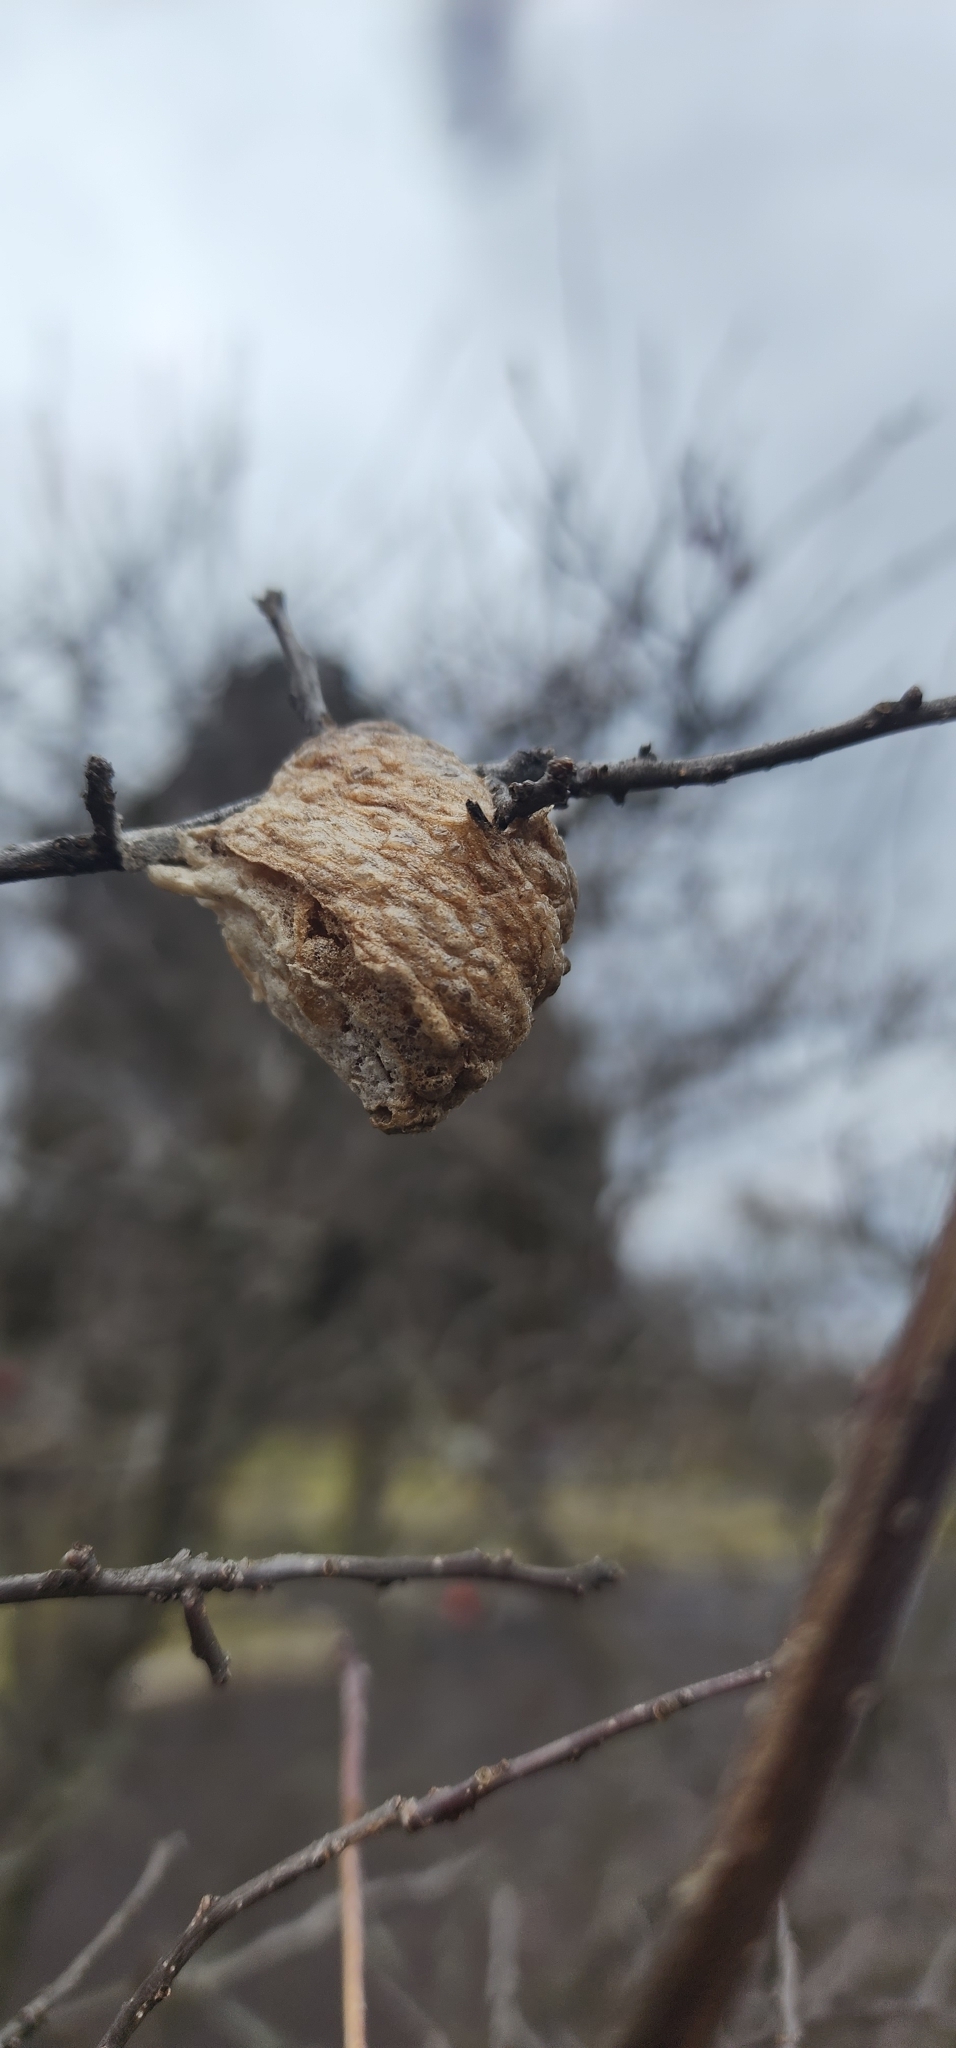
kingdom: Animalia
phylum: Arthropoda
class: Insecta
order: Mantodea
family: Mantidae
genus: Tenodera
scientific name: Tenodera sinensis
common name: Chinese mantis
